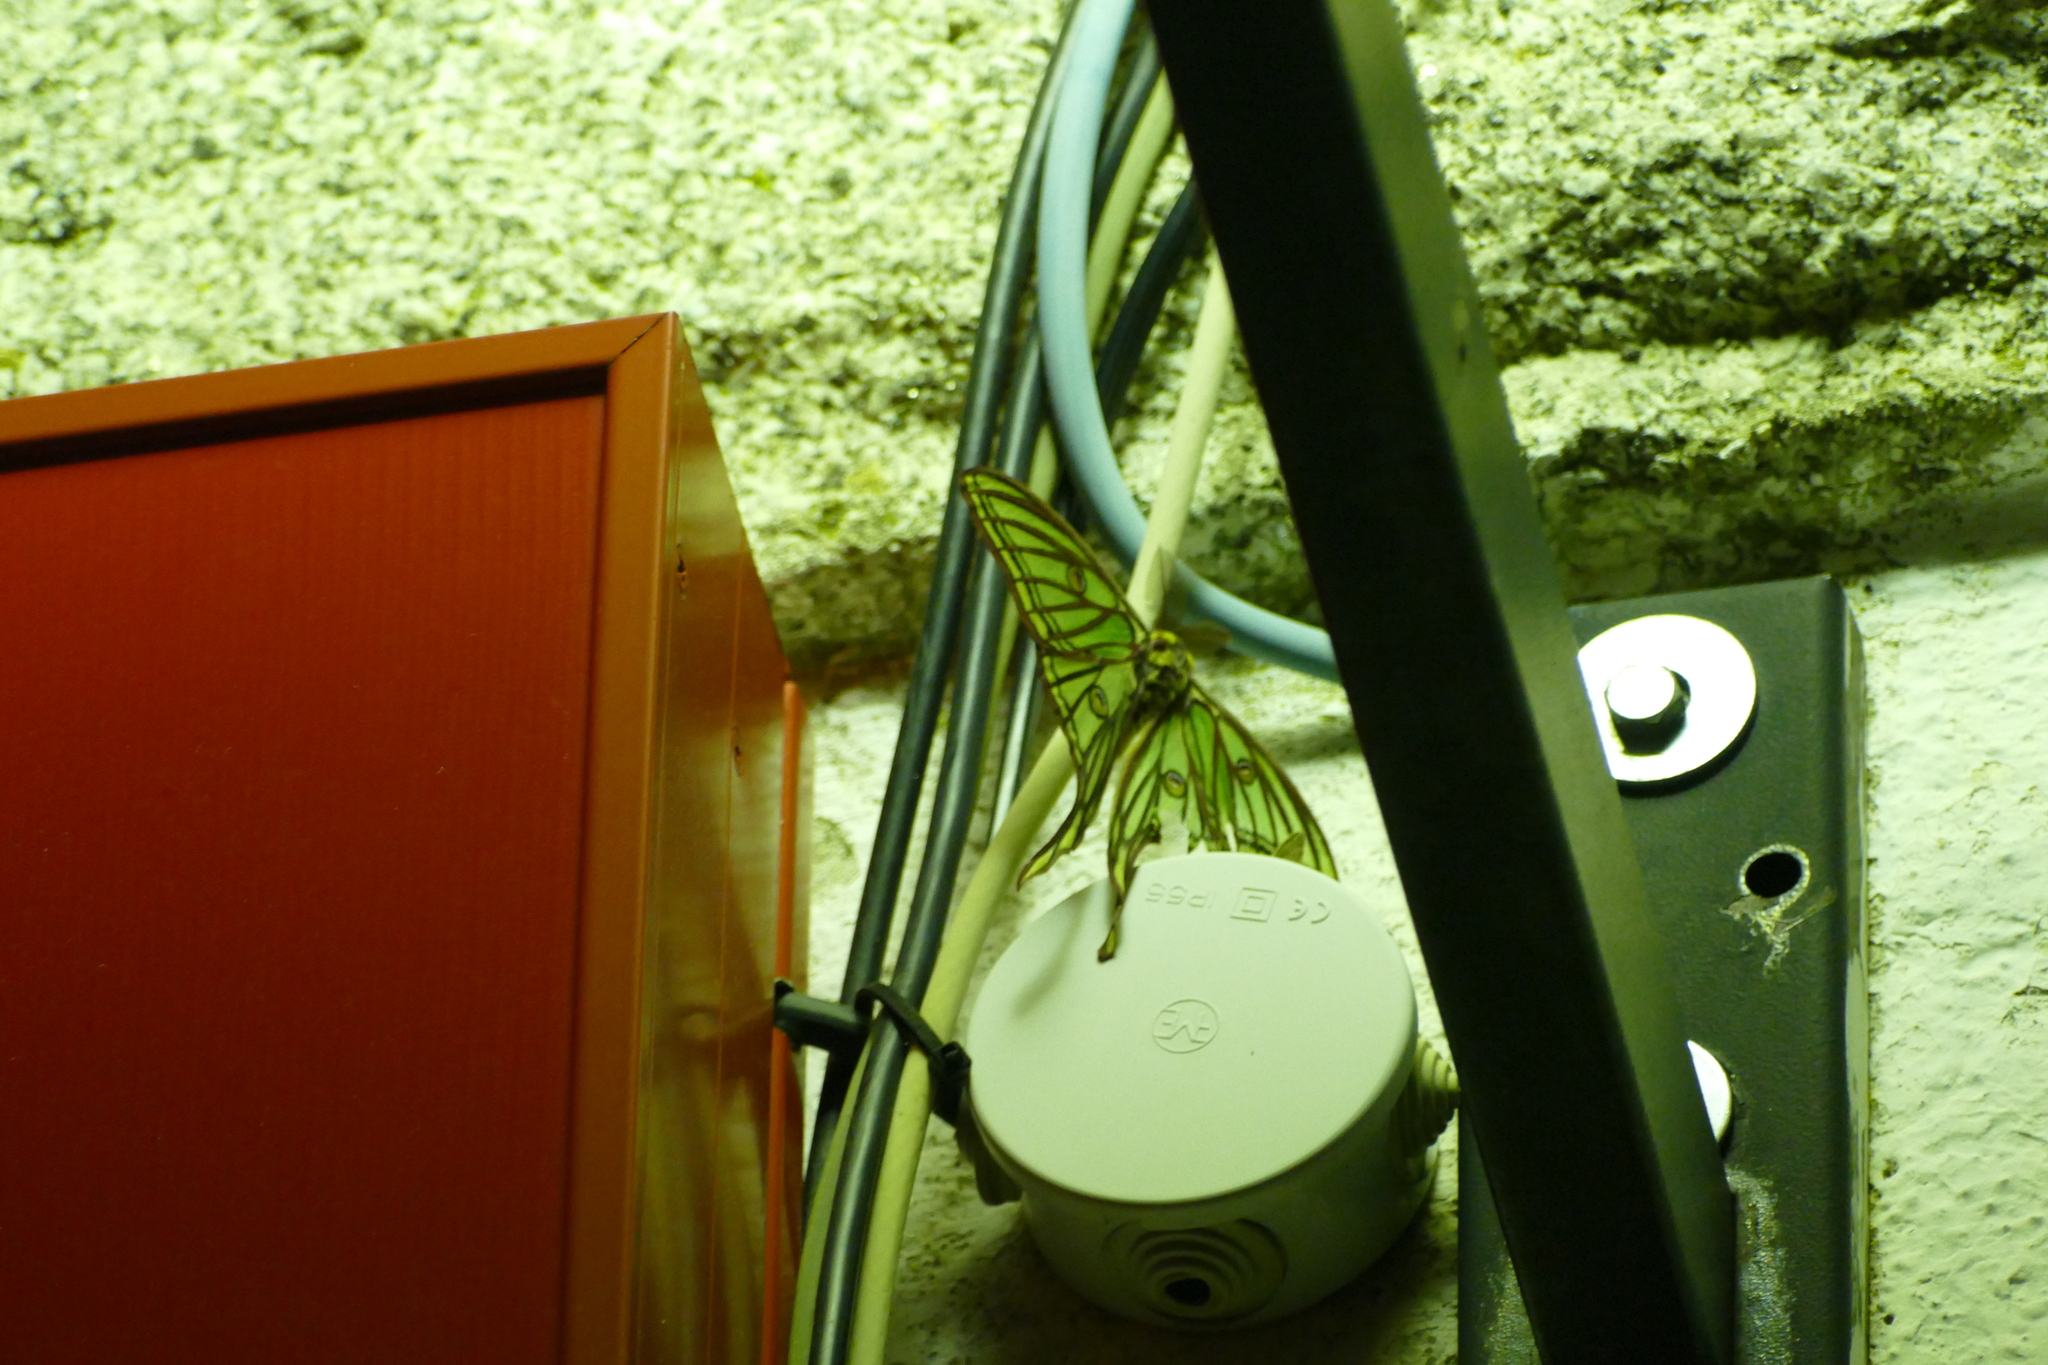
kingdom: Animalia
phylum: Arthropoda
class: Insecta
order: Lepidoptera
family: Saturniidae
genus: Graellsia
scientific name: Graellsia isabellae
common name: Spanish moon moth
